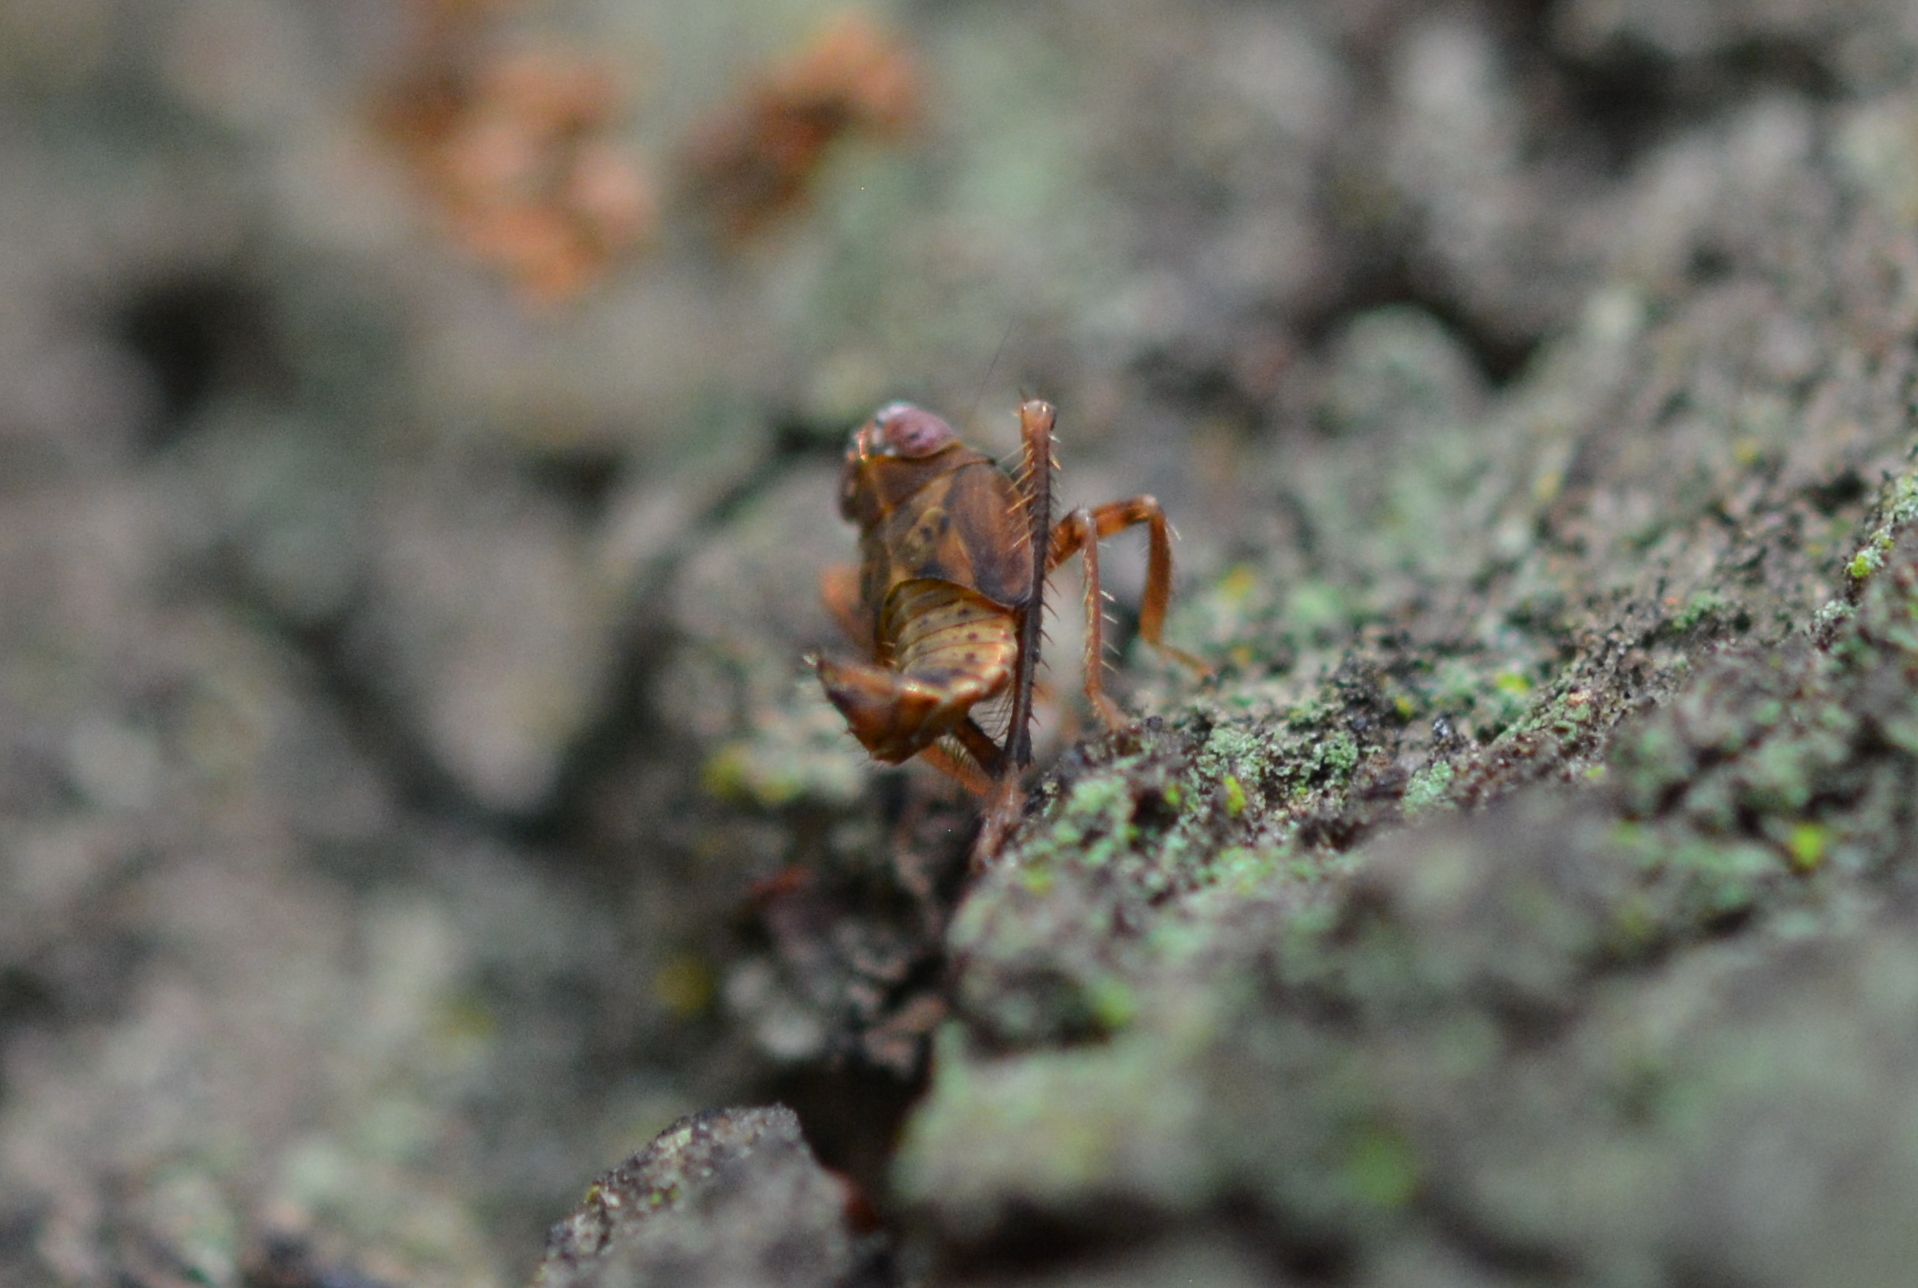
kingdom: Animalia
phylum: Arthropoda
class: Insecta
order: Hemiptera
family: Cicadellidae
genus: Jikradia
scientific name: Jikradia olitoria
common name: Coppery leafhopper
